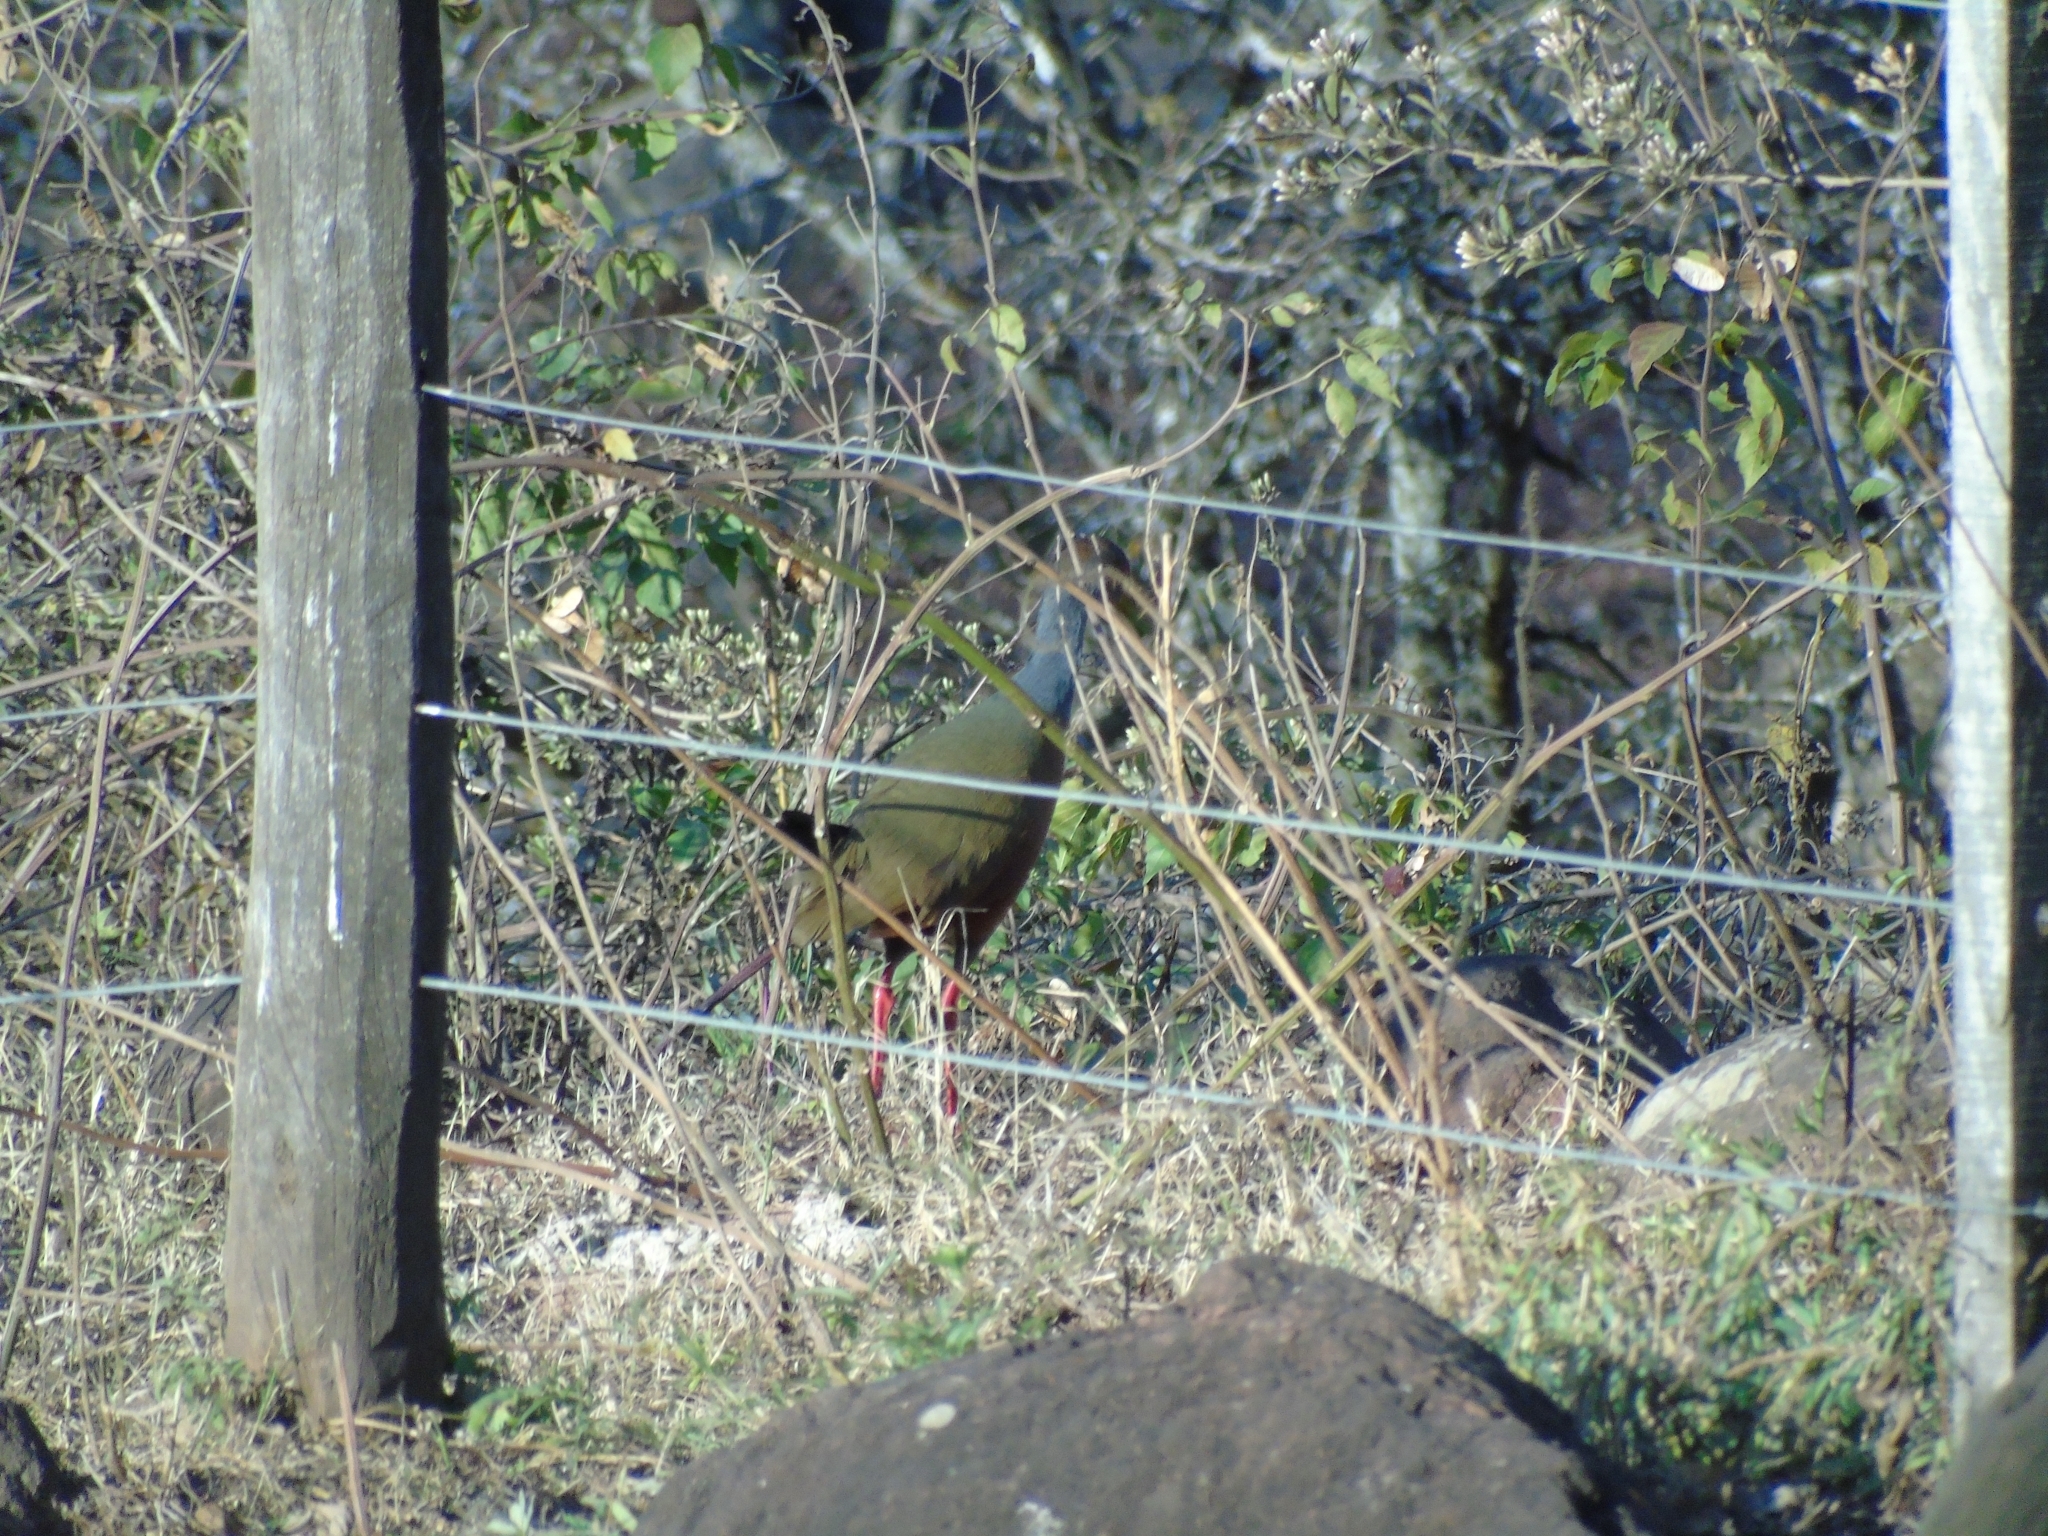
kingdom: Animalia
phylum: Chordata
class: Aves
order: Gruiformes
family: Rallidae
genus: Aramides
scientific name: Aramides cajanea
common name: Gray-necked wood-rail
